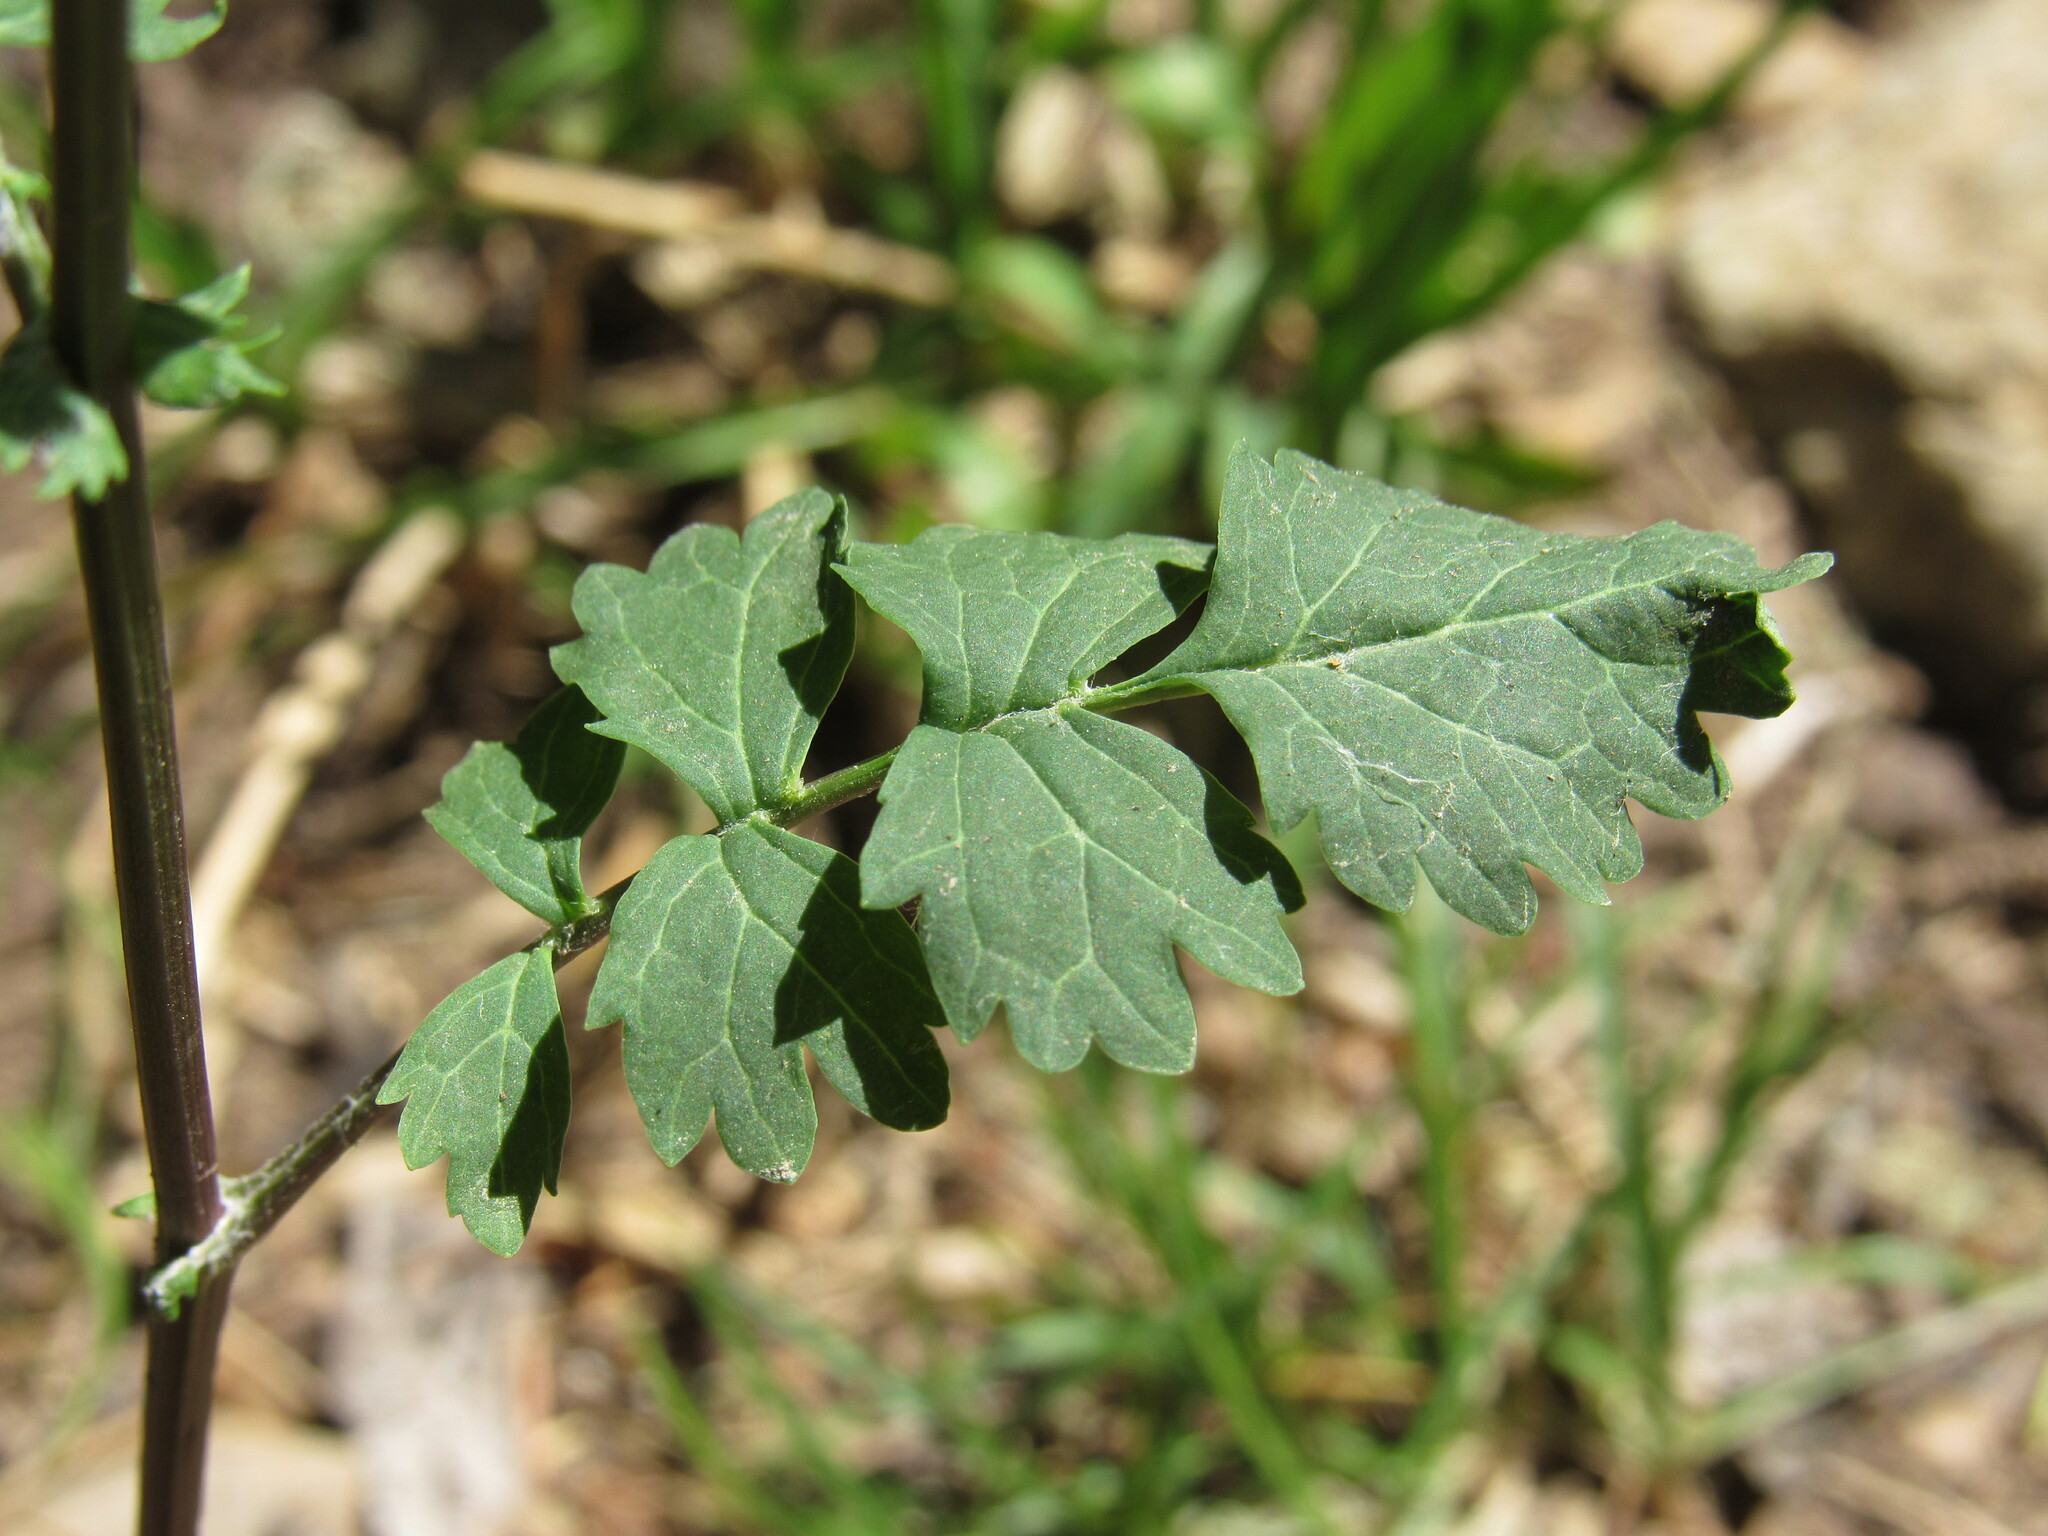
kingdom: Plantae
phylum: Tracheophyta
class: Magnoliopsida
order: Asterales
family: Asteraceae
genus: Packera
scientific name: Packera multilobata
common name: Lobe-leaf groundsel
